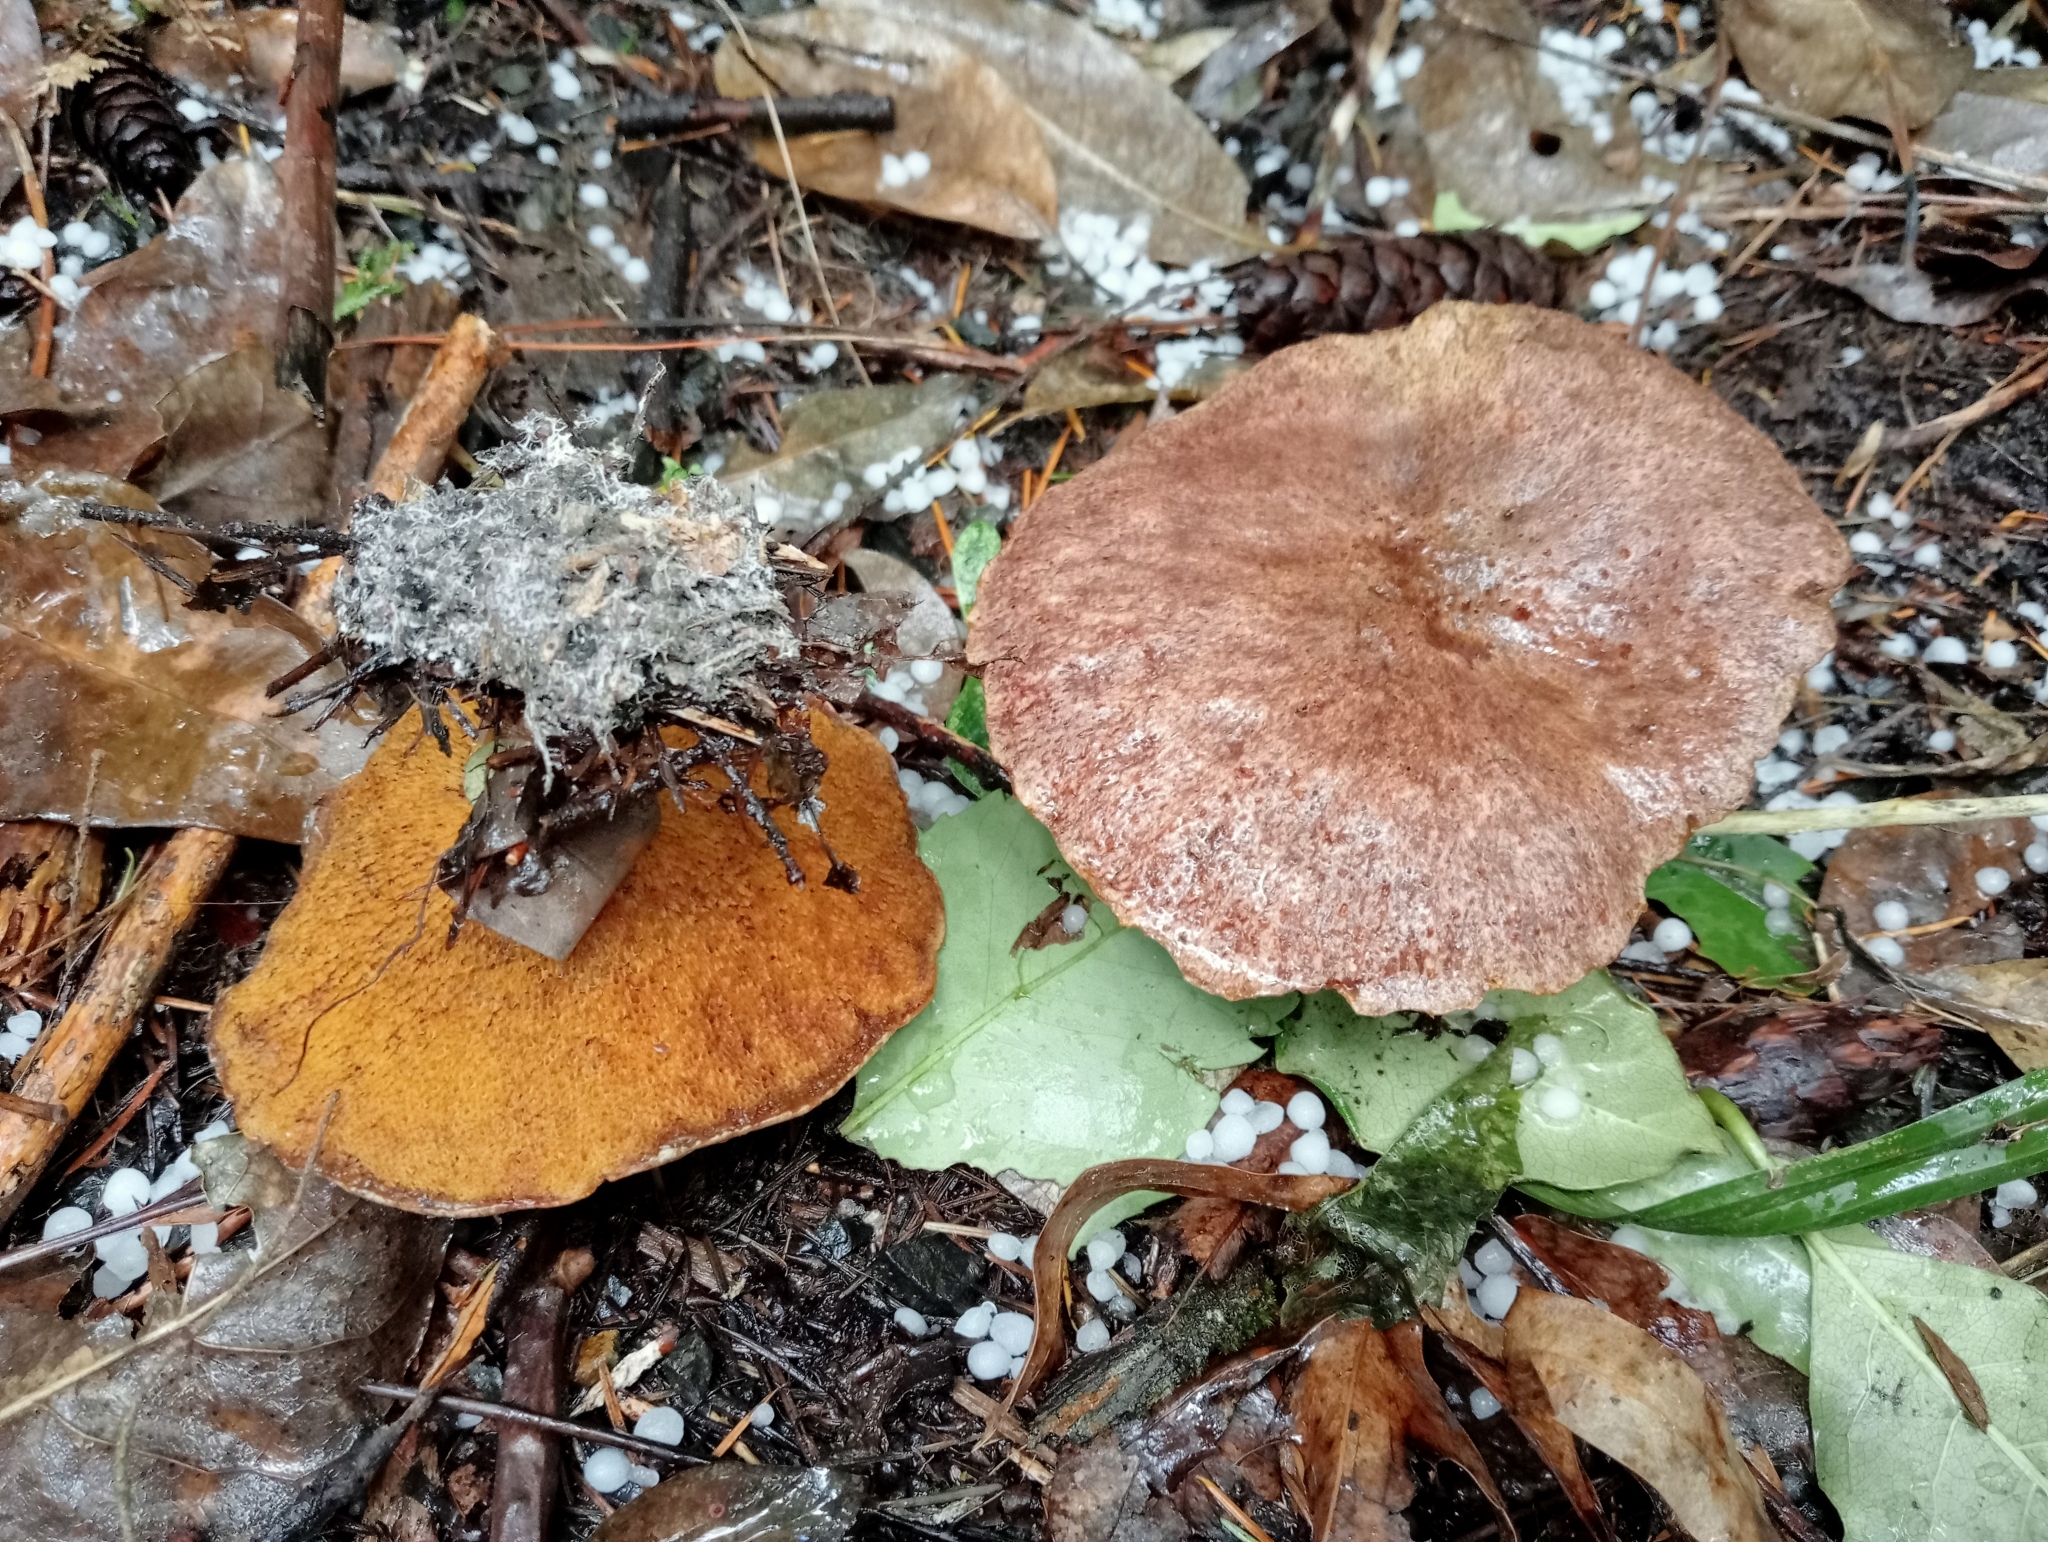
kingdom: Fungi
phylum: Basidiomycota
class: Agaricomycetes
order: Boletales
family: Suillaceae
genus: Suillus
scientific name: Suillus lakei
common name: Western painted suillus
